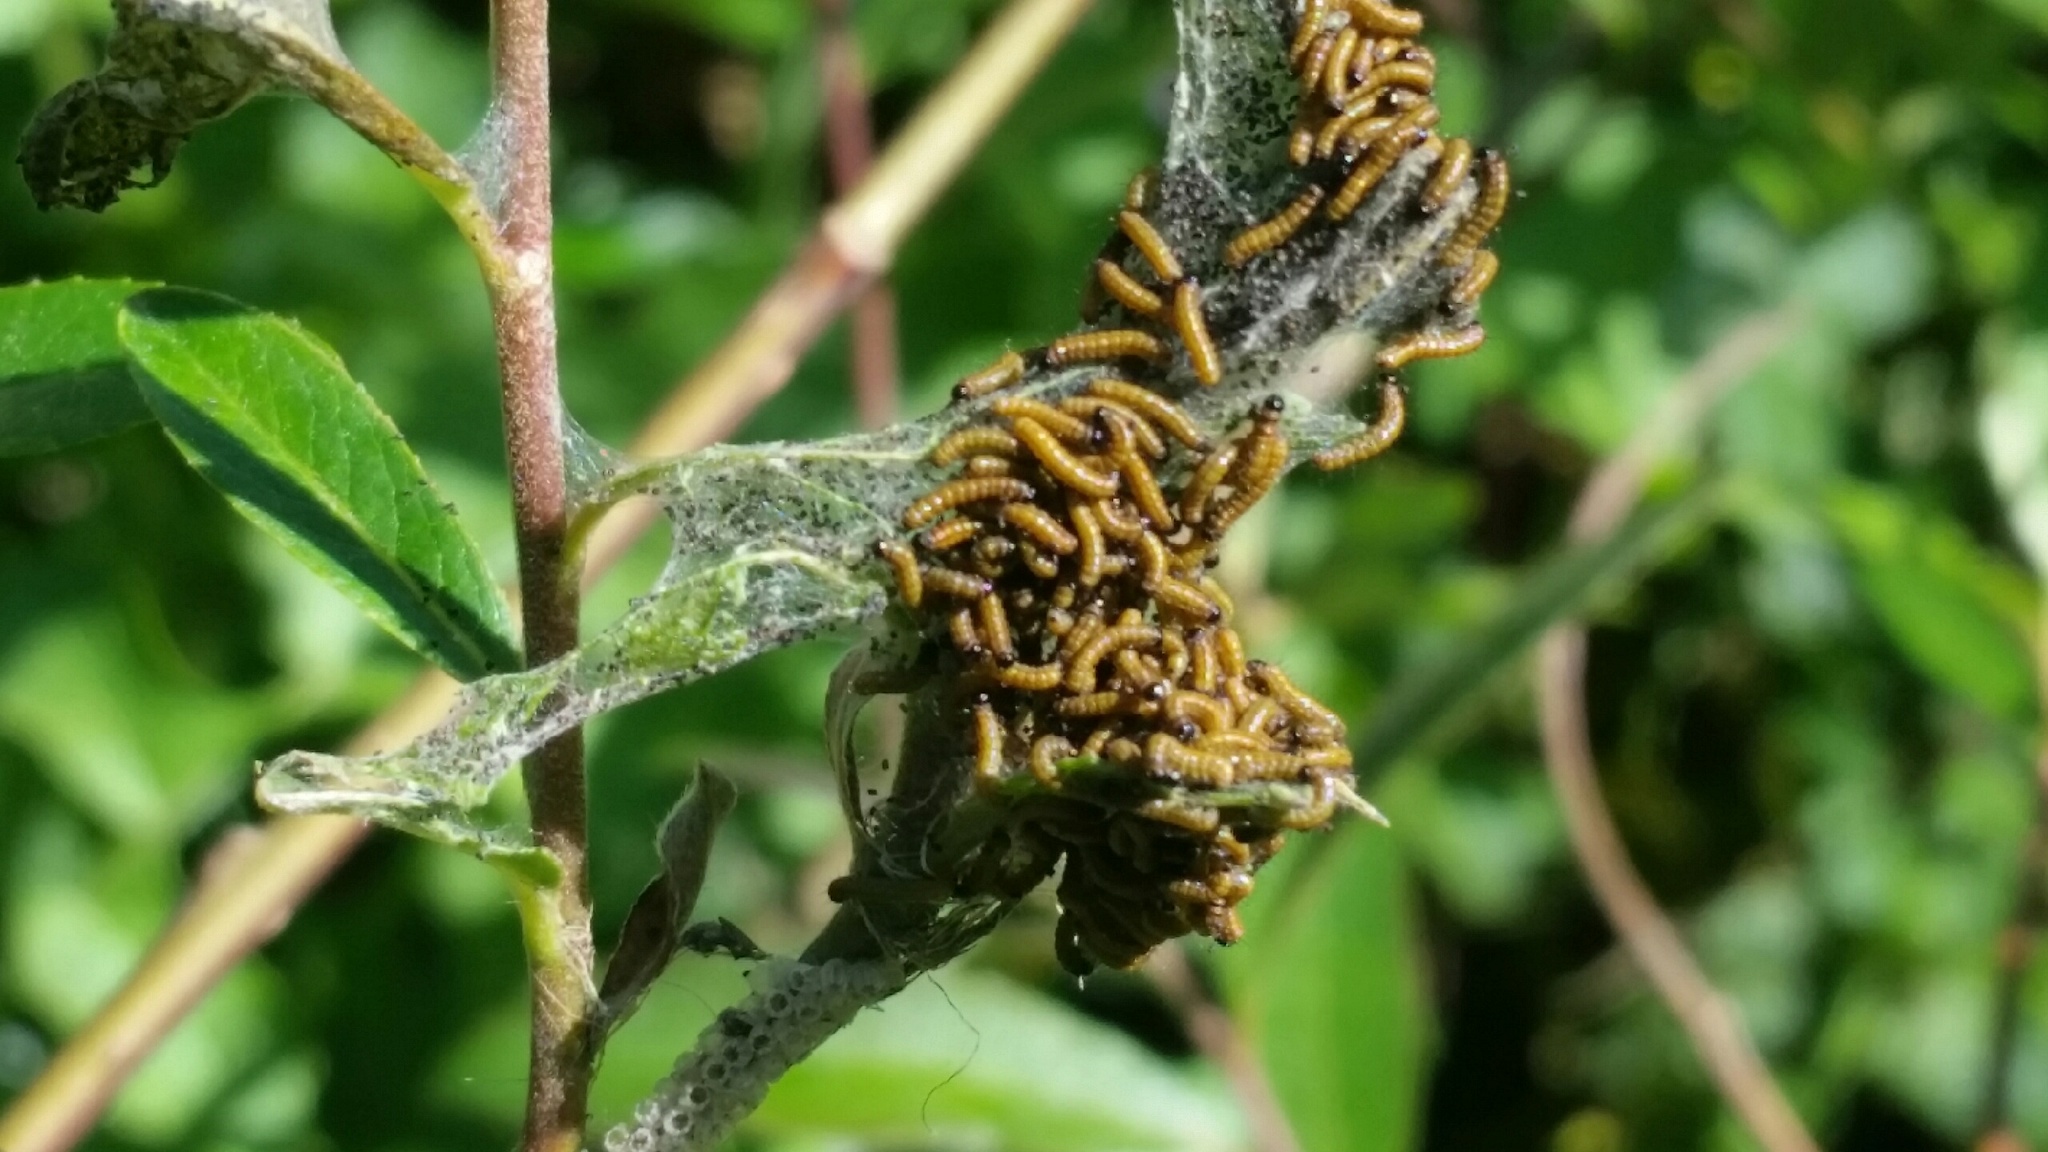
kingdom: Animalia
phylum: Arthropoda
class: Insecta
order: Lepidoptera
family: Nymphalidae
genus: Nymphalis
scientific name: Nymphalis antiopa
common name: Camberwell beauty
